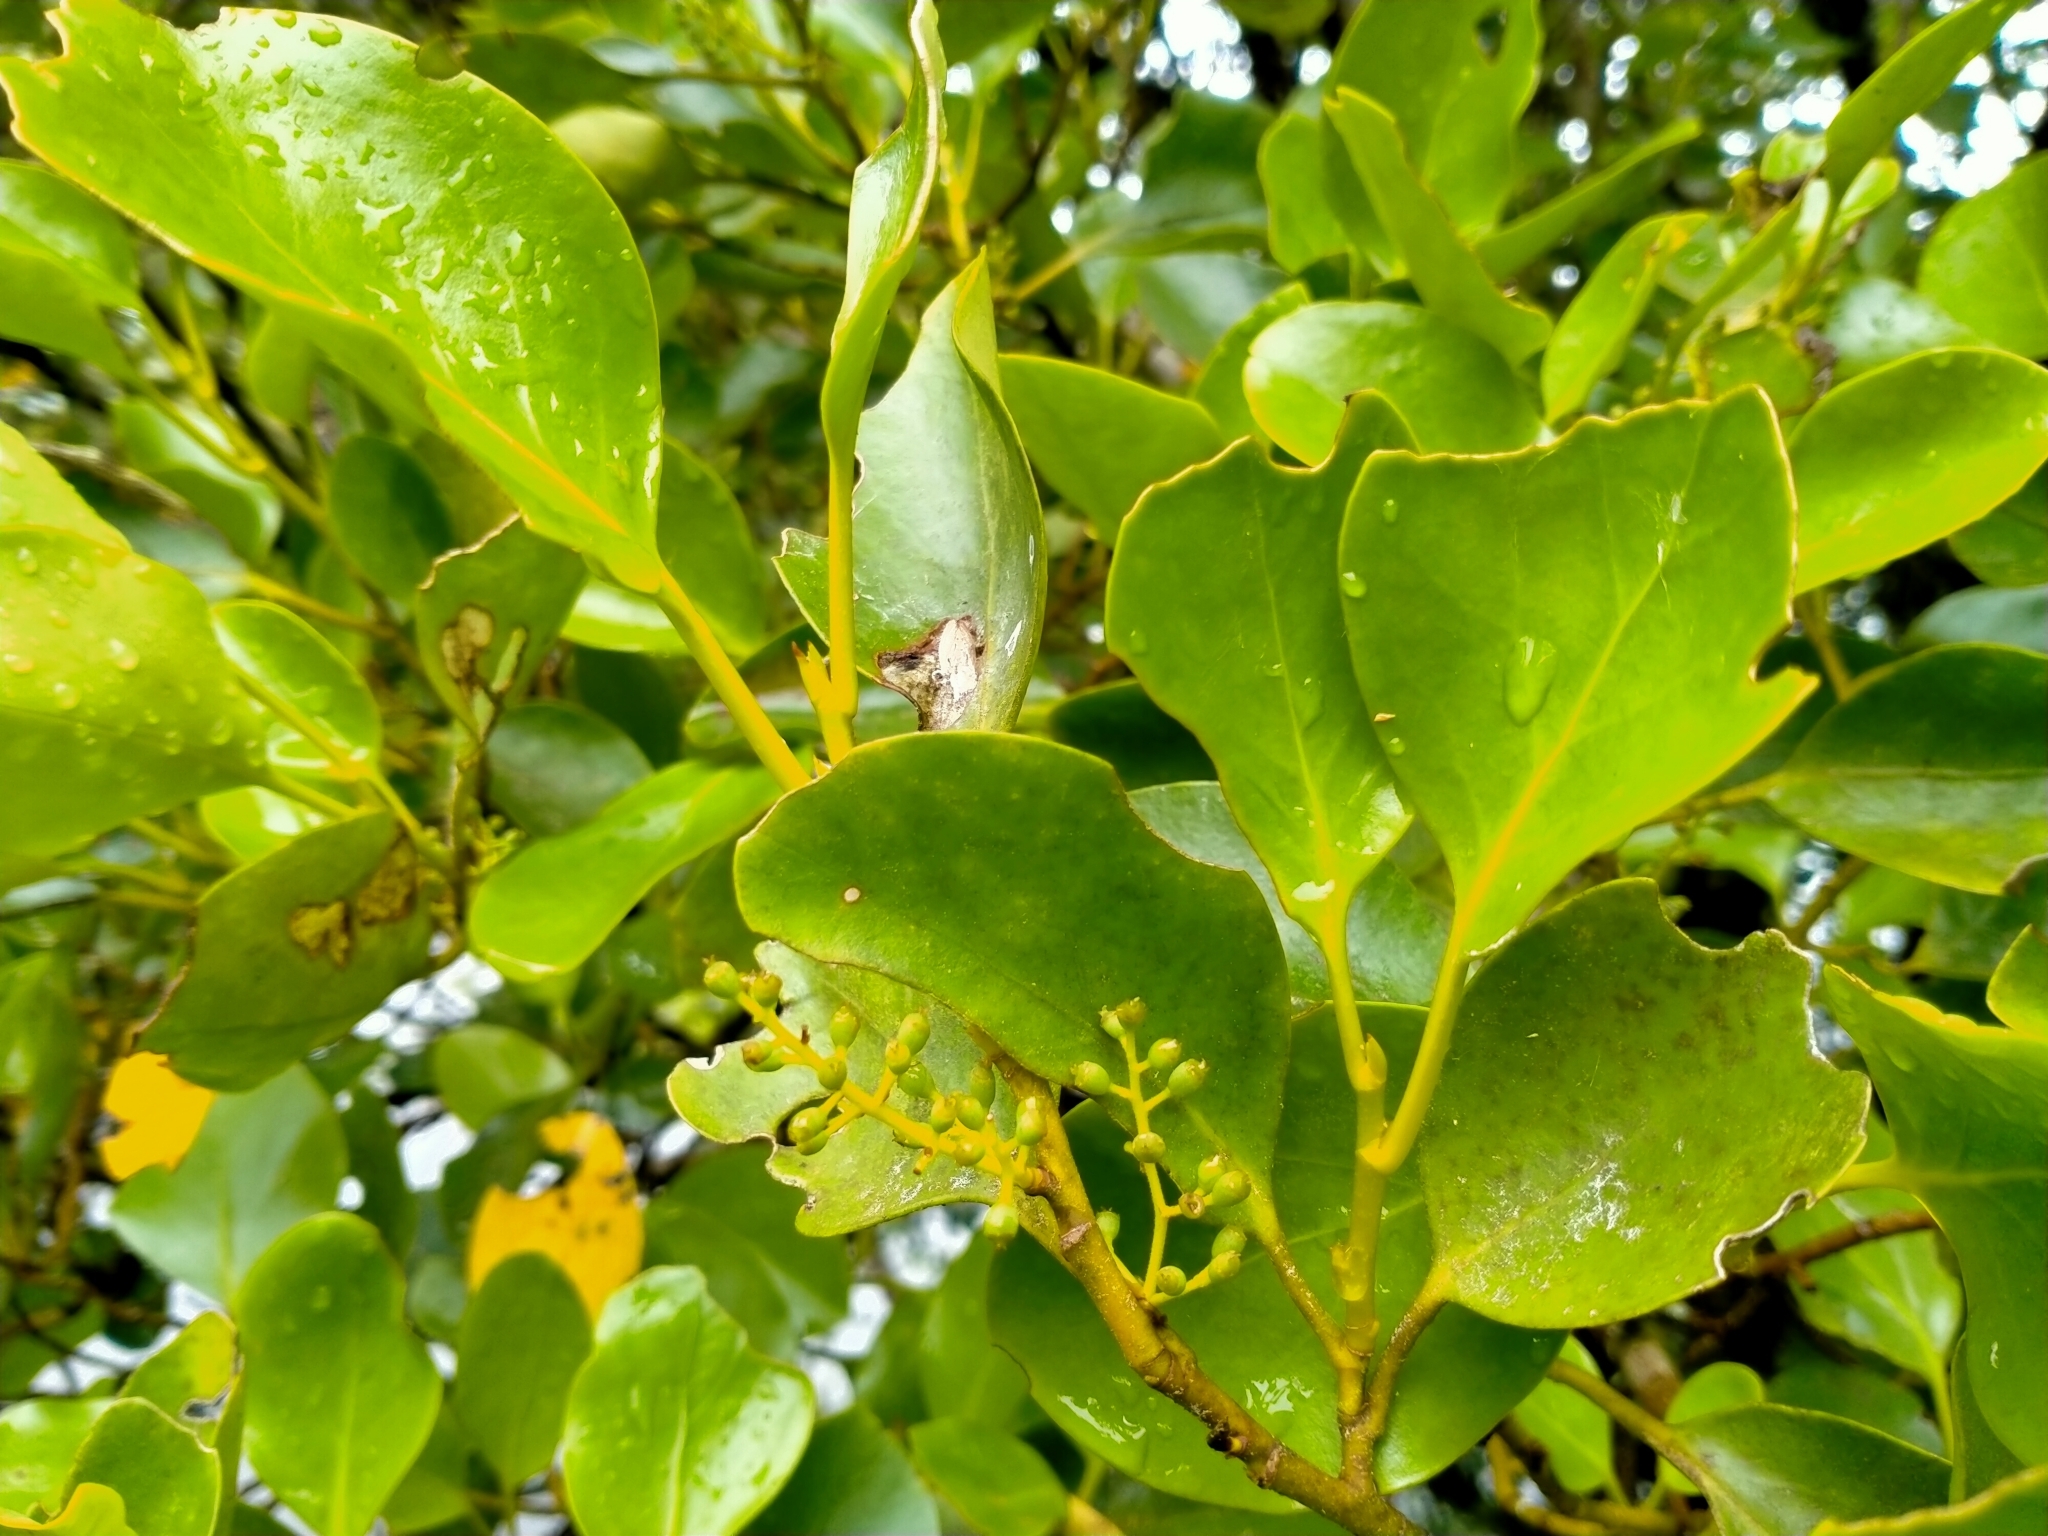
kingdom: Plantae
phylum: Tracheophyta
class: Magnoliopsida
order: Apiales
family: Griseliniaceae
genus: Griselinia
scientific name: Griselinia littoralis
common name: New zealand broadleaf
